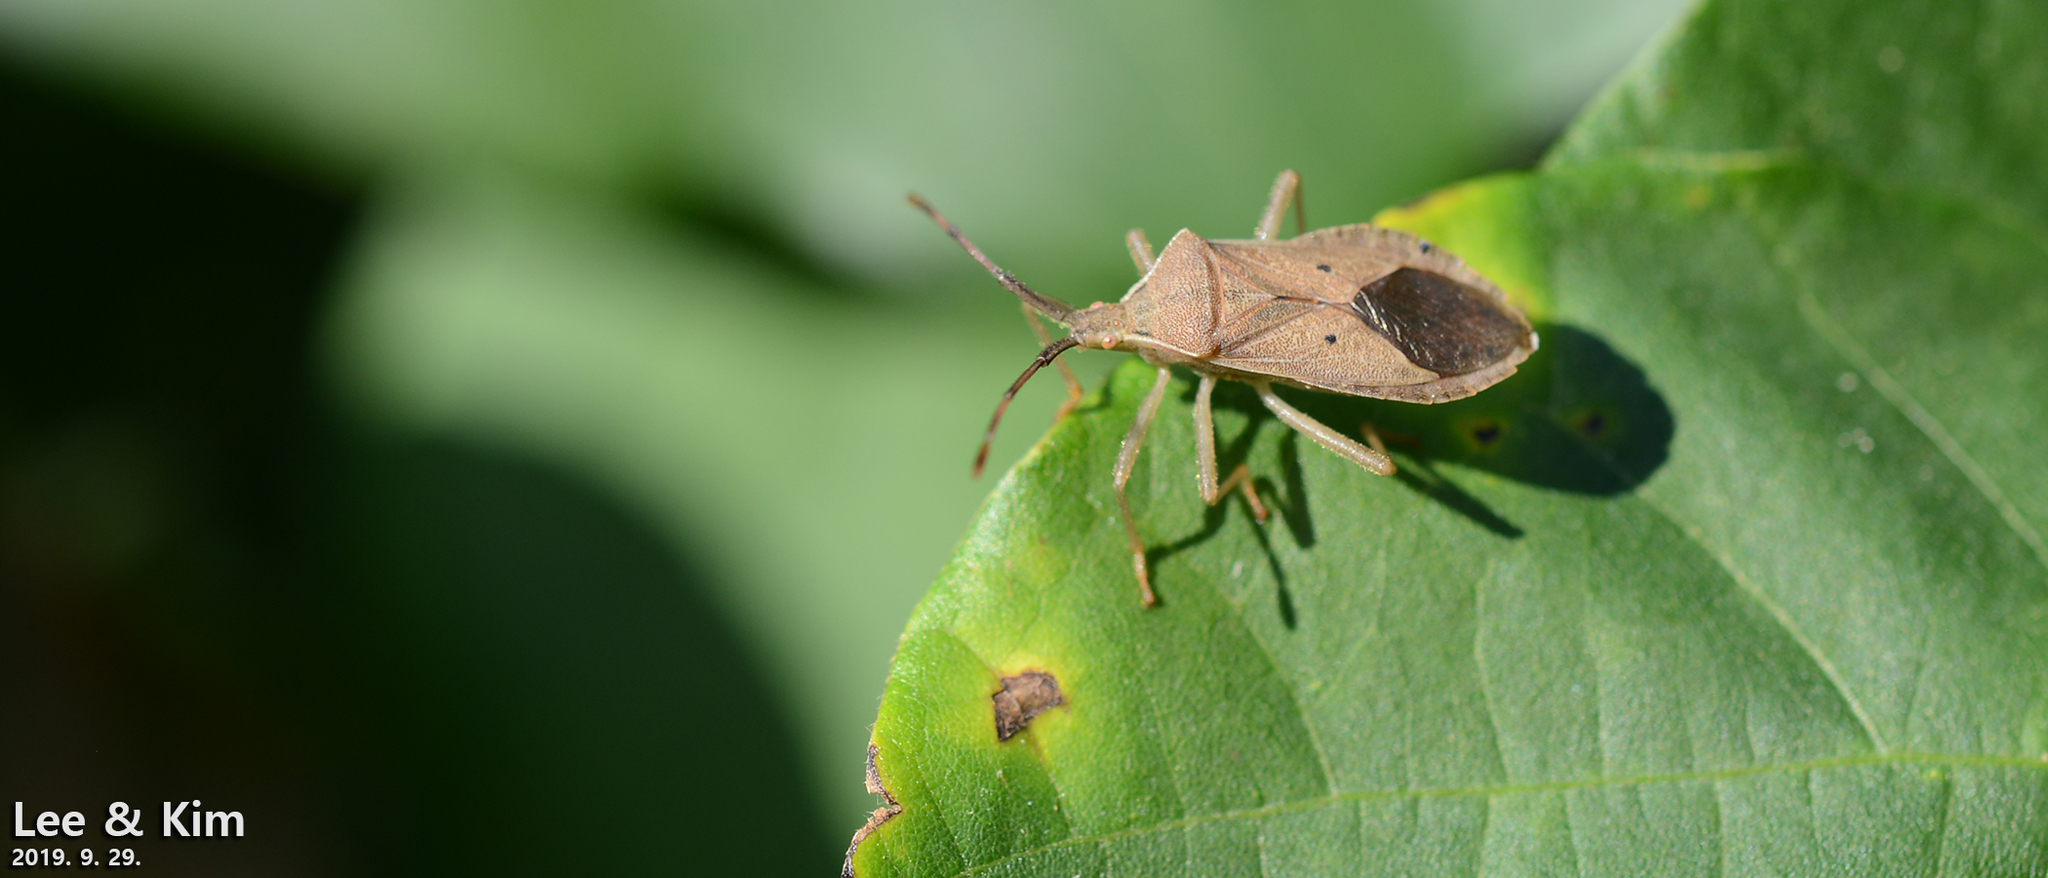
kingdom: Animalia
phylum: Arthropoda
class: Insecta
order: Hemiptera
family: Coreidae
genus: Homoeocerus
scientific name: Homoeocerus unipunctatus
